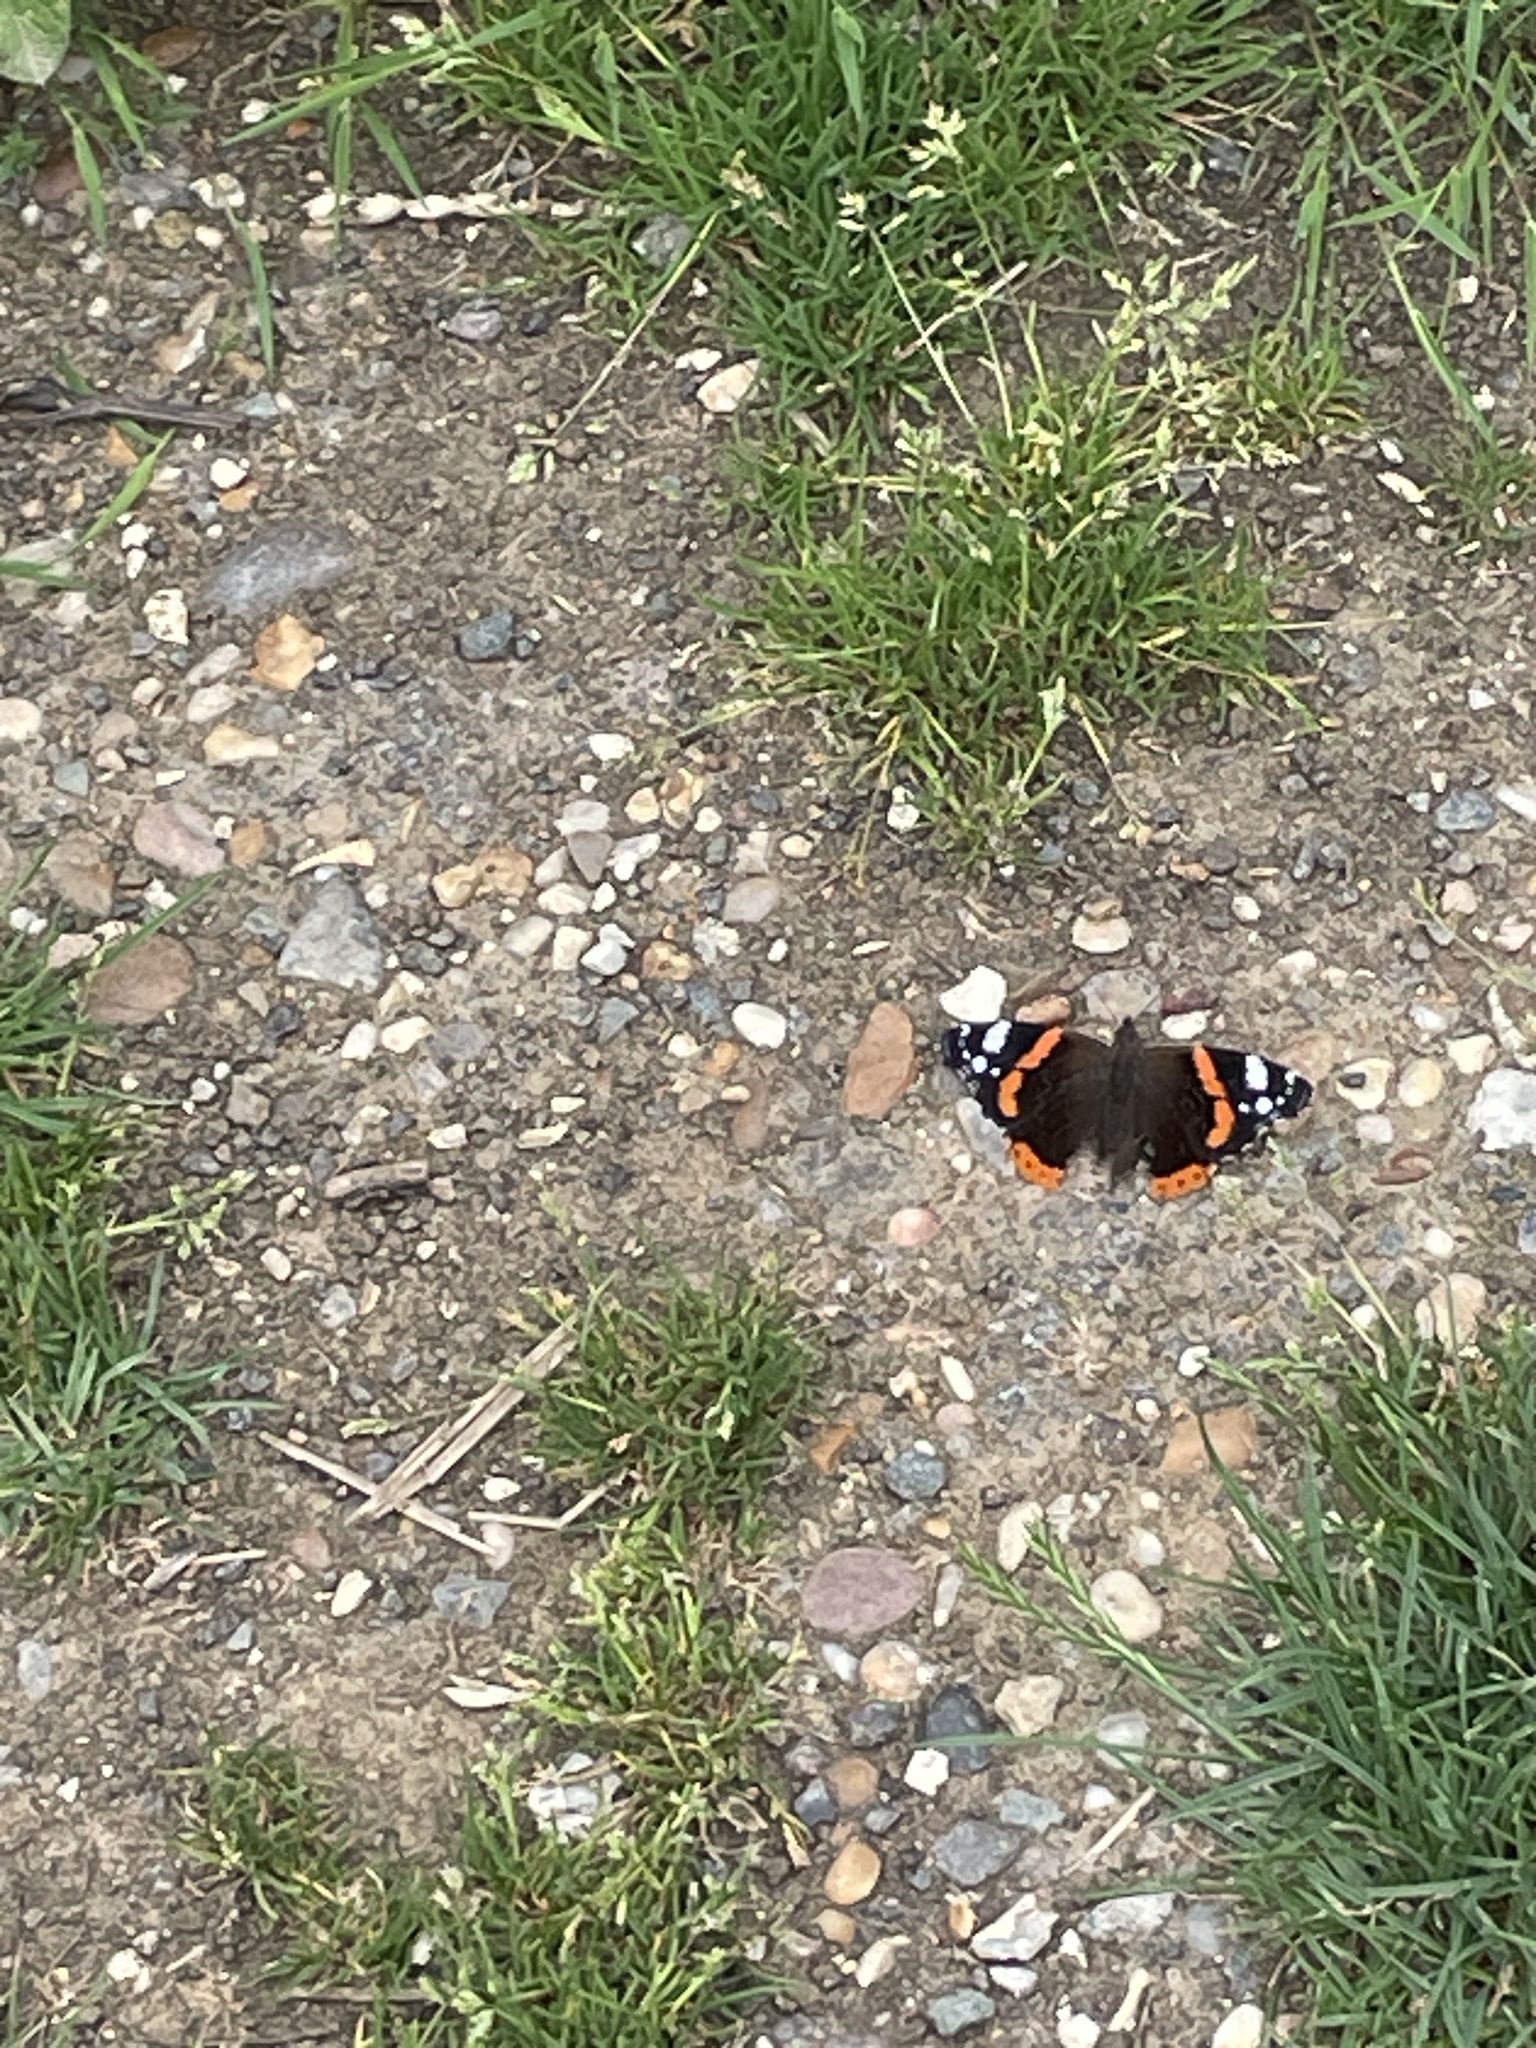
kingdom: Animalia
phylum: Arthropoda
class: Insecta
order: Lepidoptera
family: Nymphalidae
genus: Vanessa
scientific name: Vanessa atalanta
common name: Red admiral
